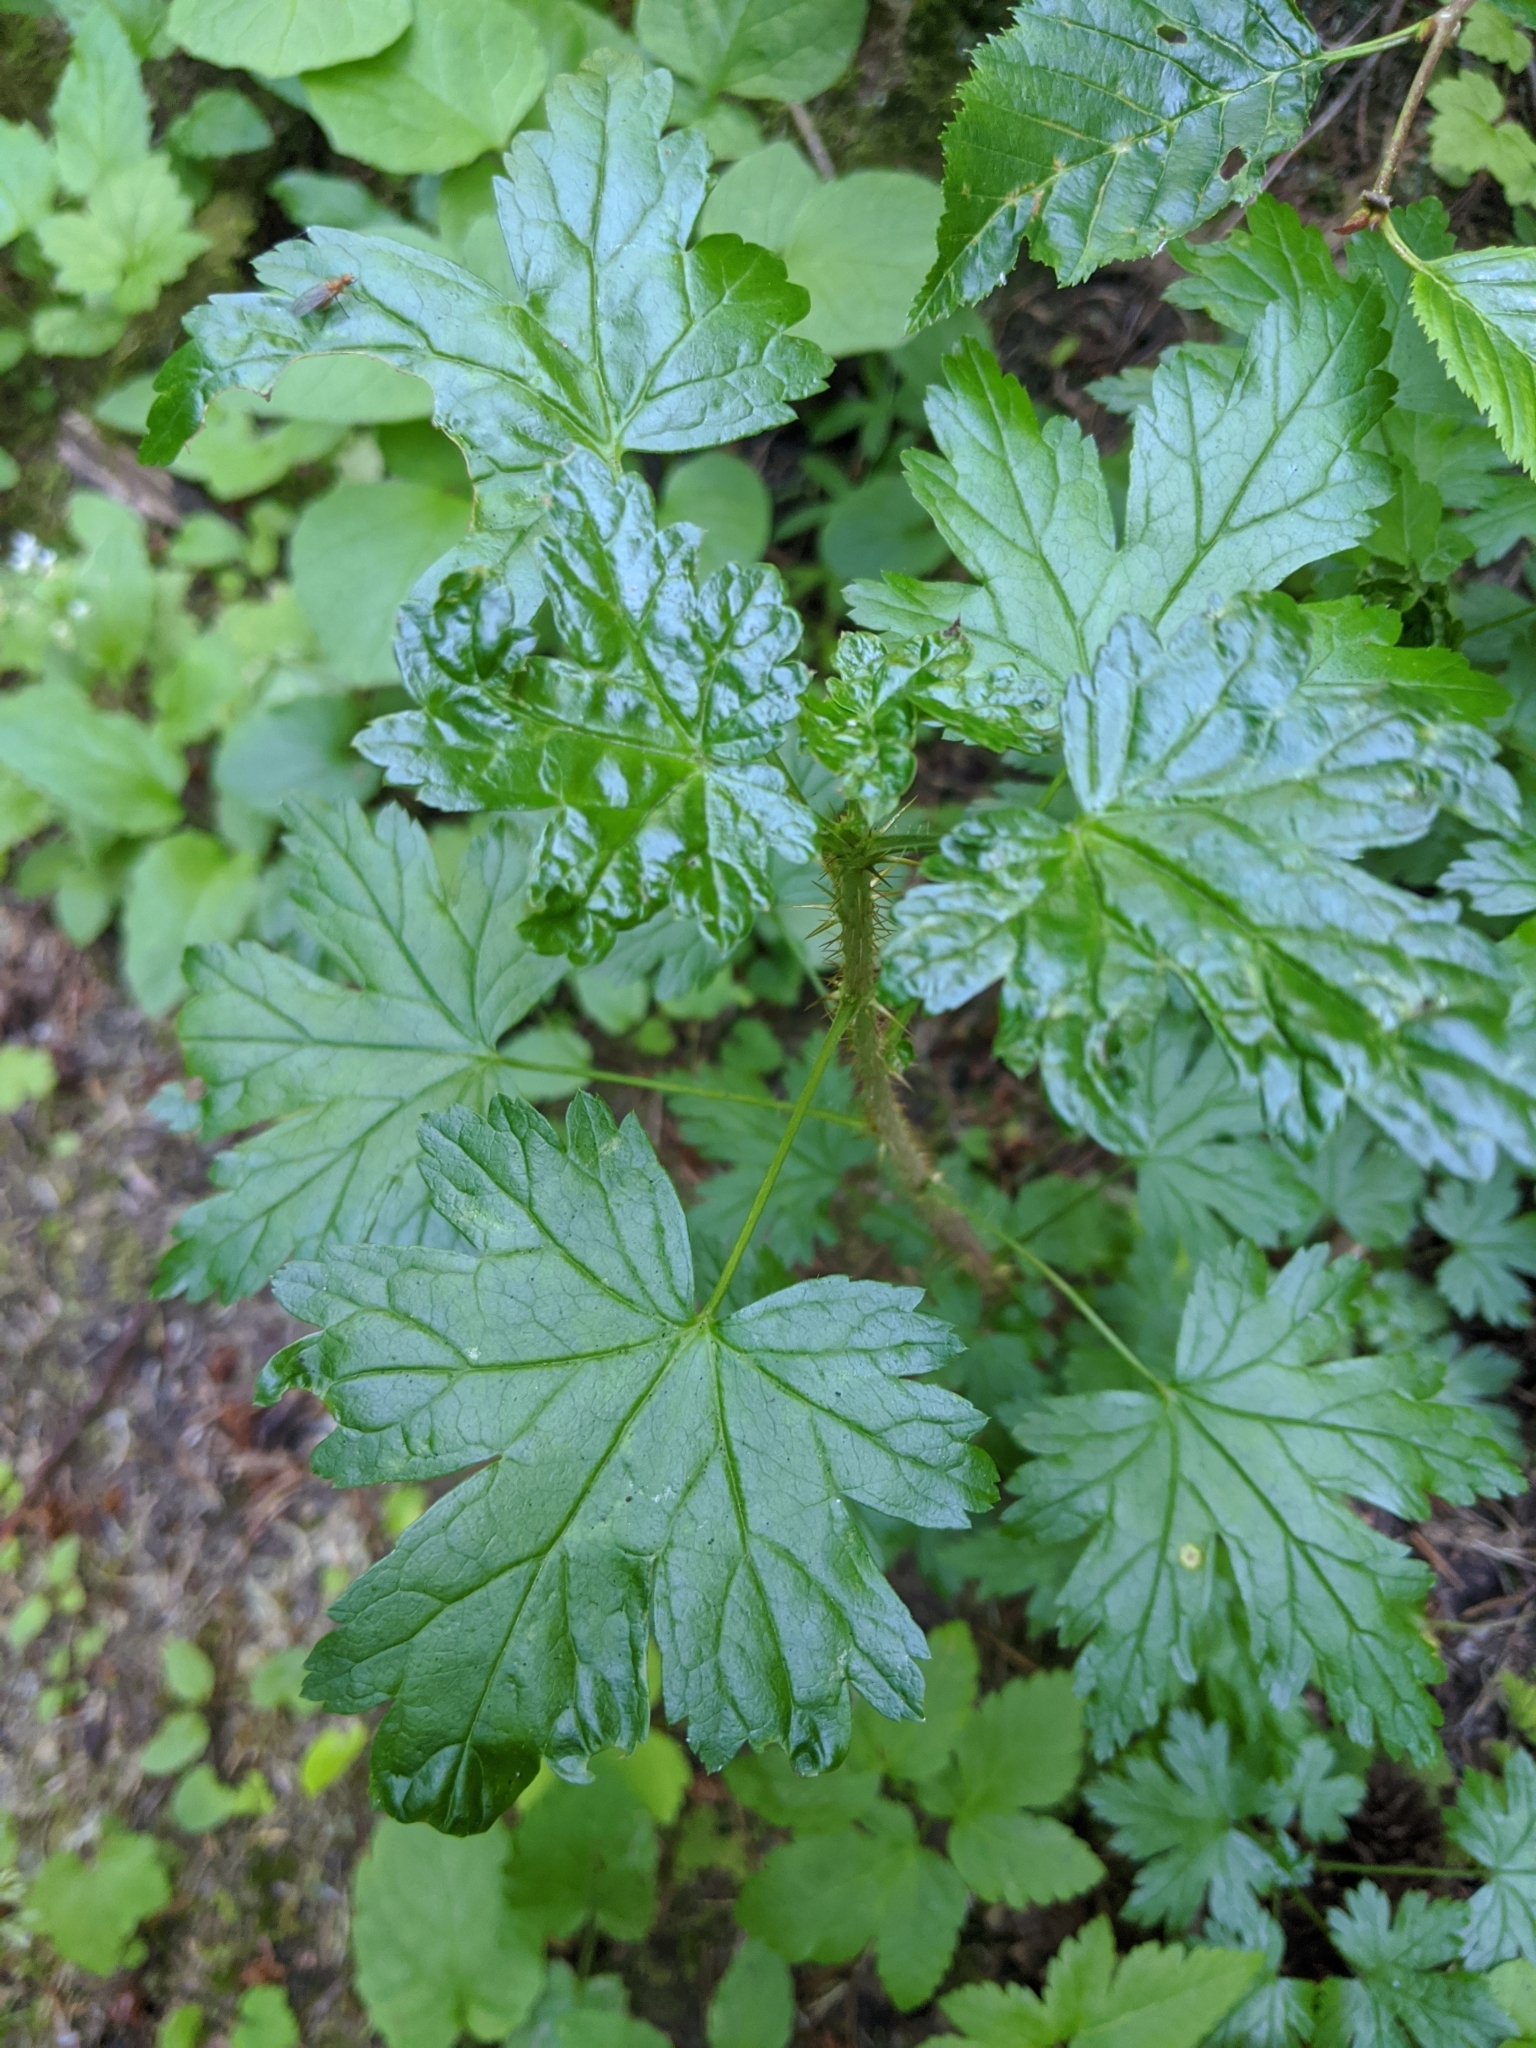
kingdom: Plantae
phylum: Tracheophyta
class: Magnoliopsida
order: Saxifragales
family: Grossulariaceae
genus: Ribes
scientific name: Ribes lacustre
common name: Black gooseberry
